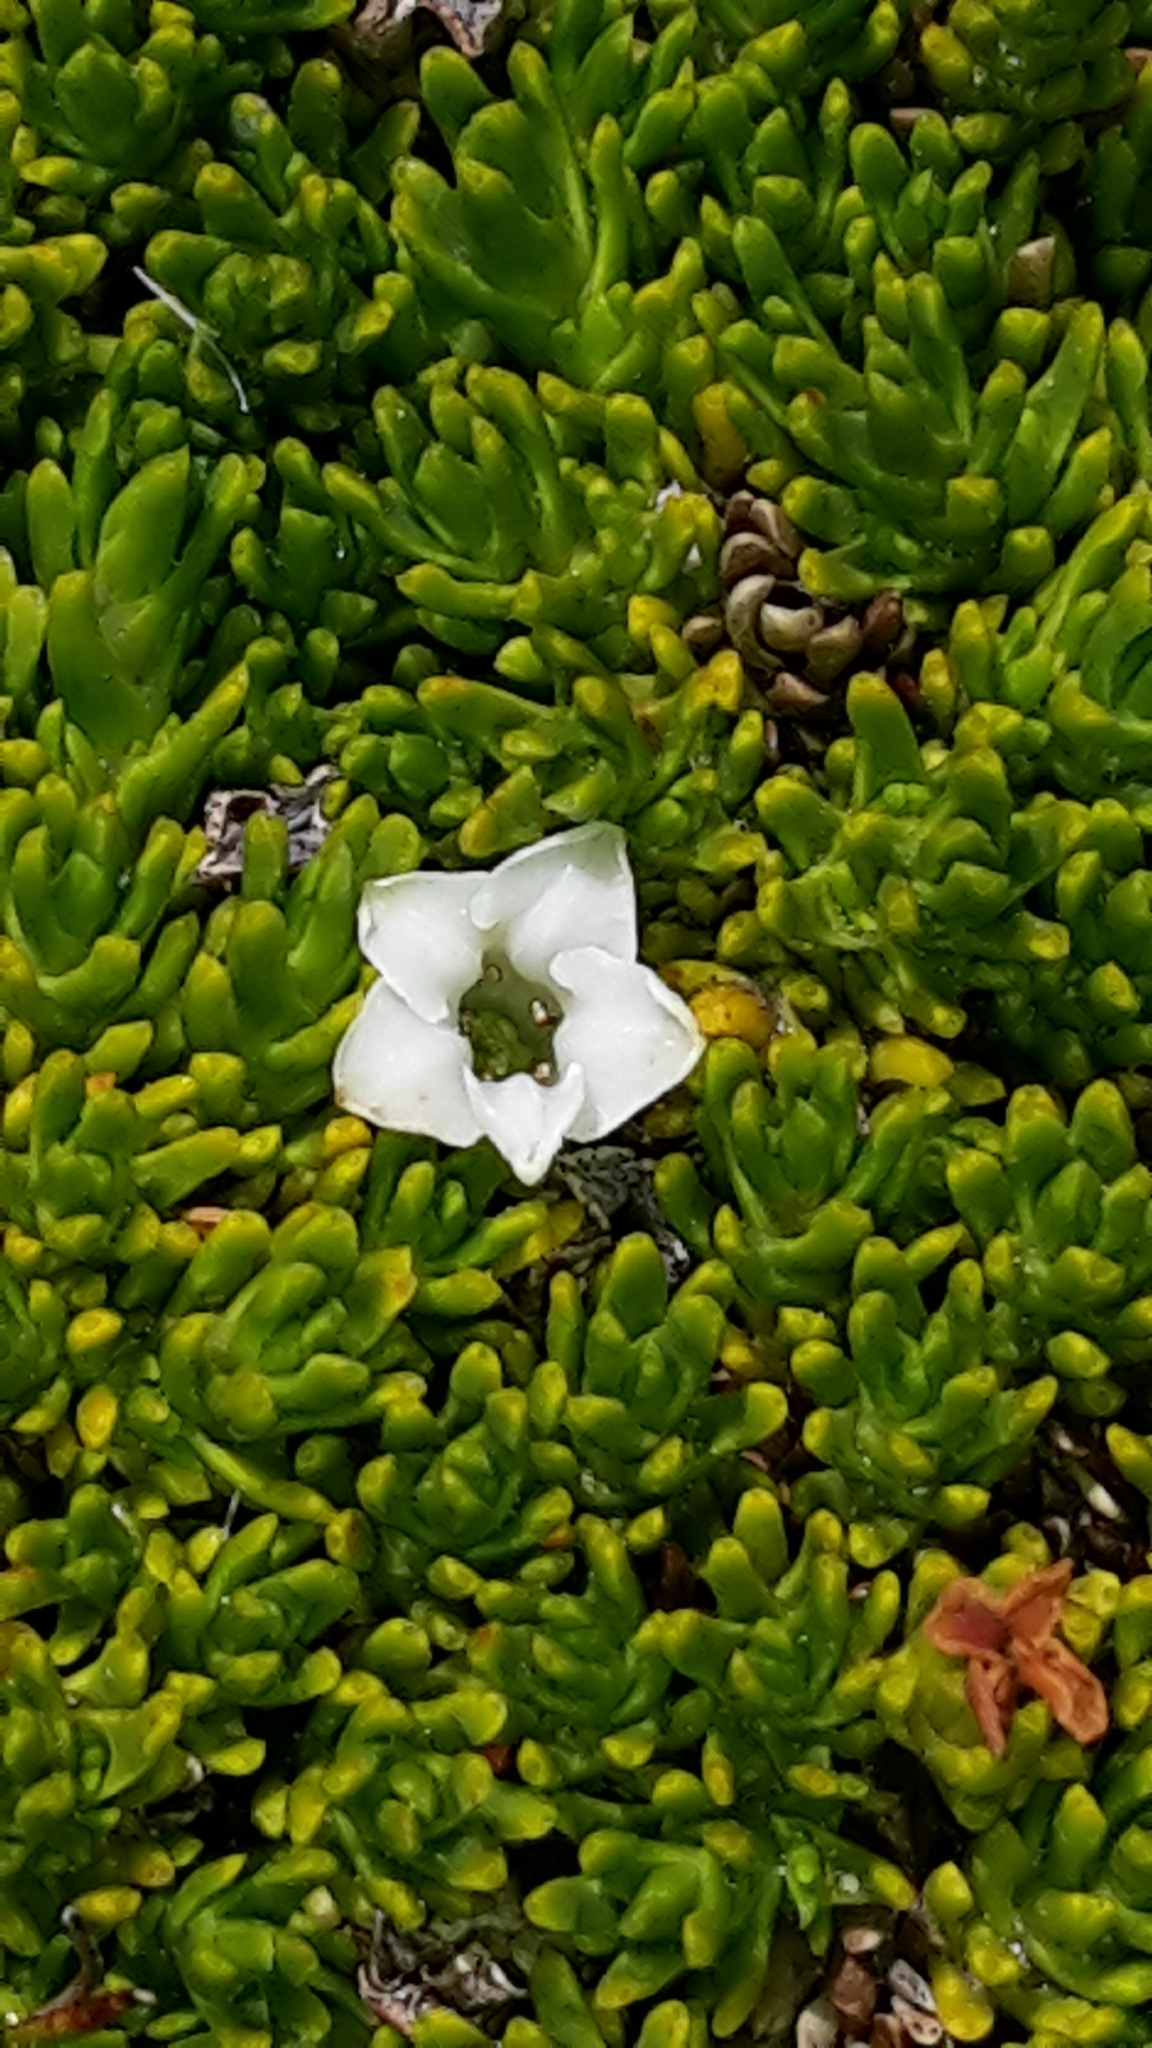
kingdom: Plantae
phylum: Tracheophyta
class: Magnoliopsida
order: Ericales
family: Ericaceae
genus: Dracophyllum
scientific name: Dracophyllum muscoides
